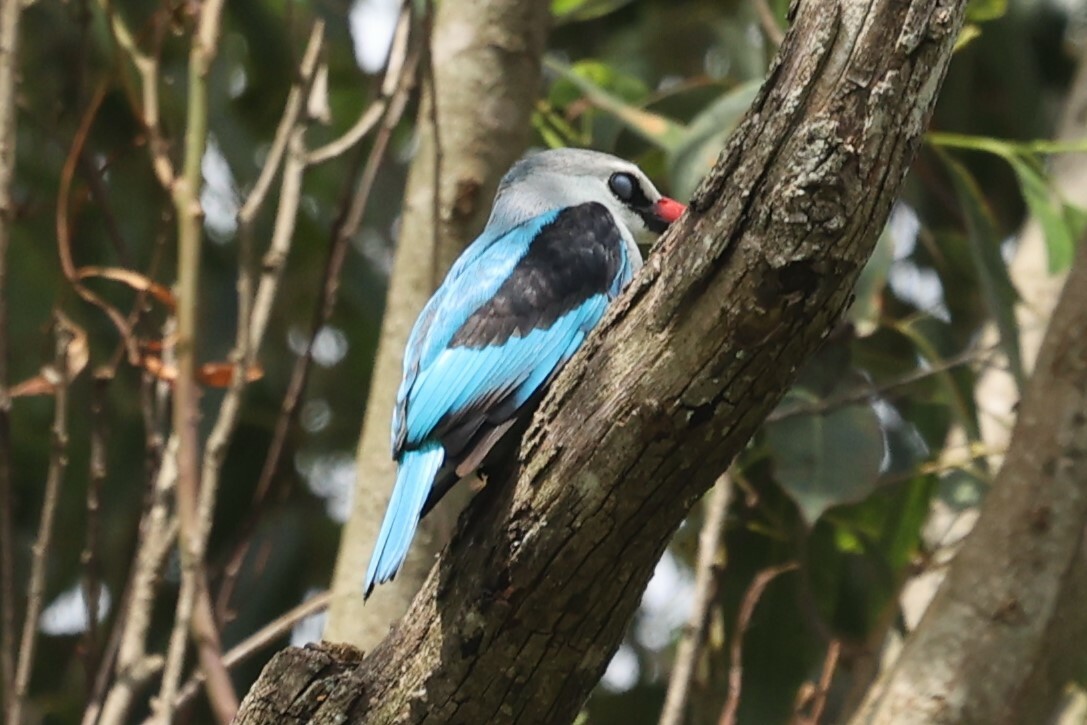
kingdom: Animalia
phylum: Chordata
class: Aves
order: Coraciiformes
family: Alcedinidae
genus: Halcyon
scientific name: Halcyon senegalensis
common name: Woodland kingfisher
